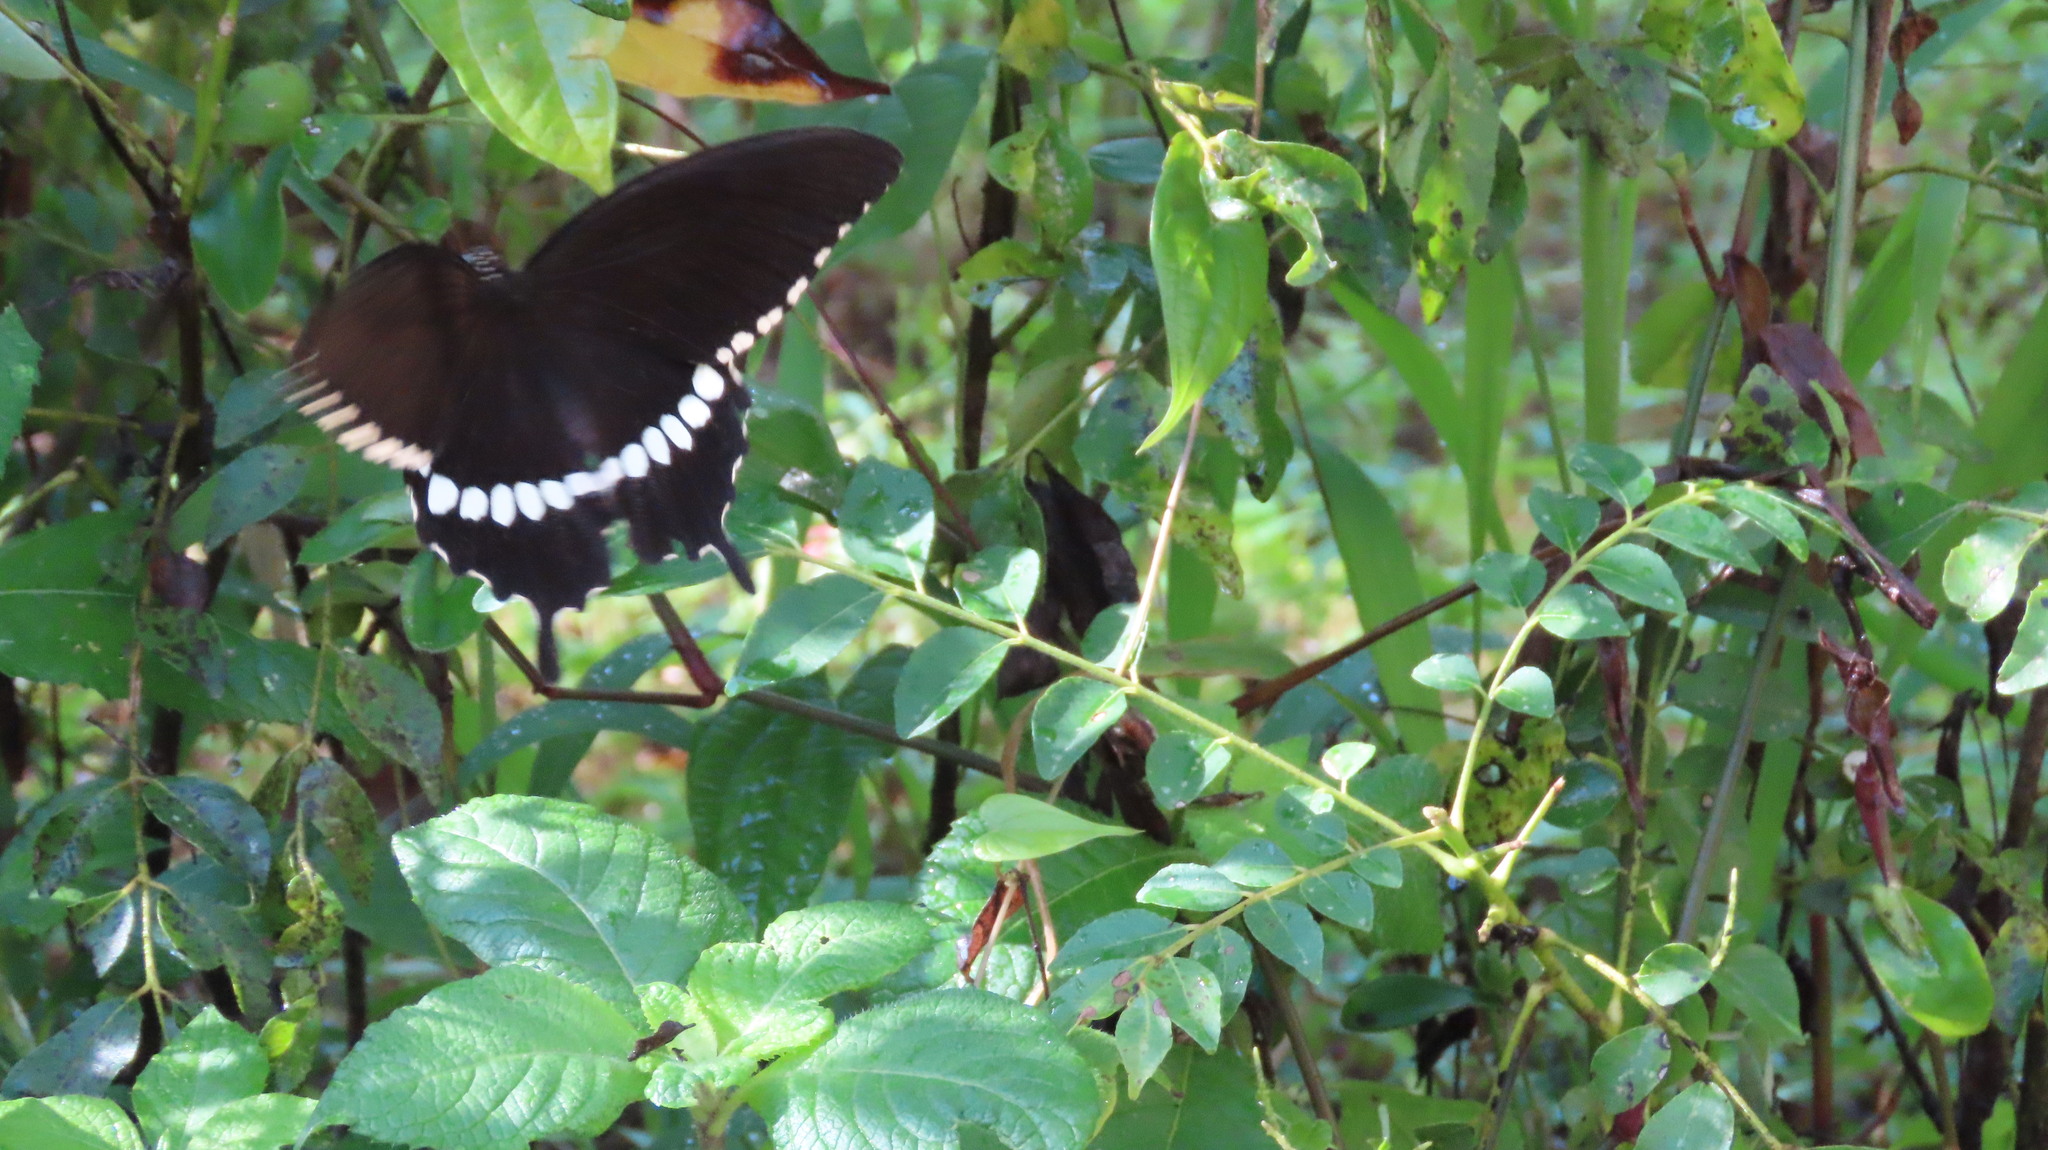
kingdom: Animalia
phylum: Arthropoda
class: Insecta
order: Lepidoptera
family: Papilionidae
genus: Papilio
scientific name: Papilio polytes
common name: Common mormon
